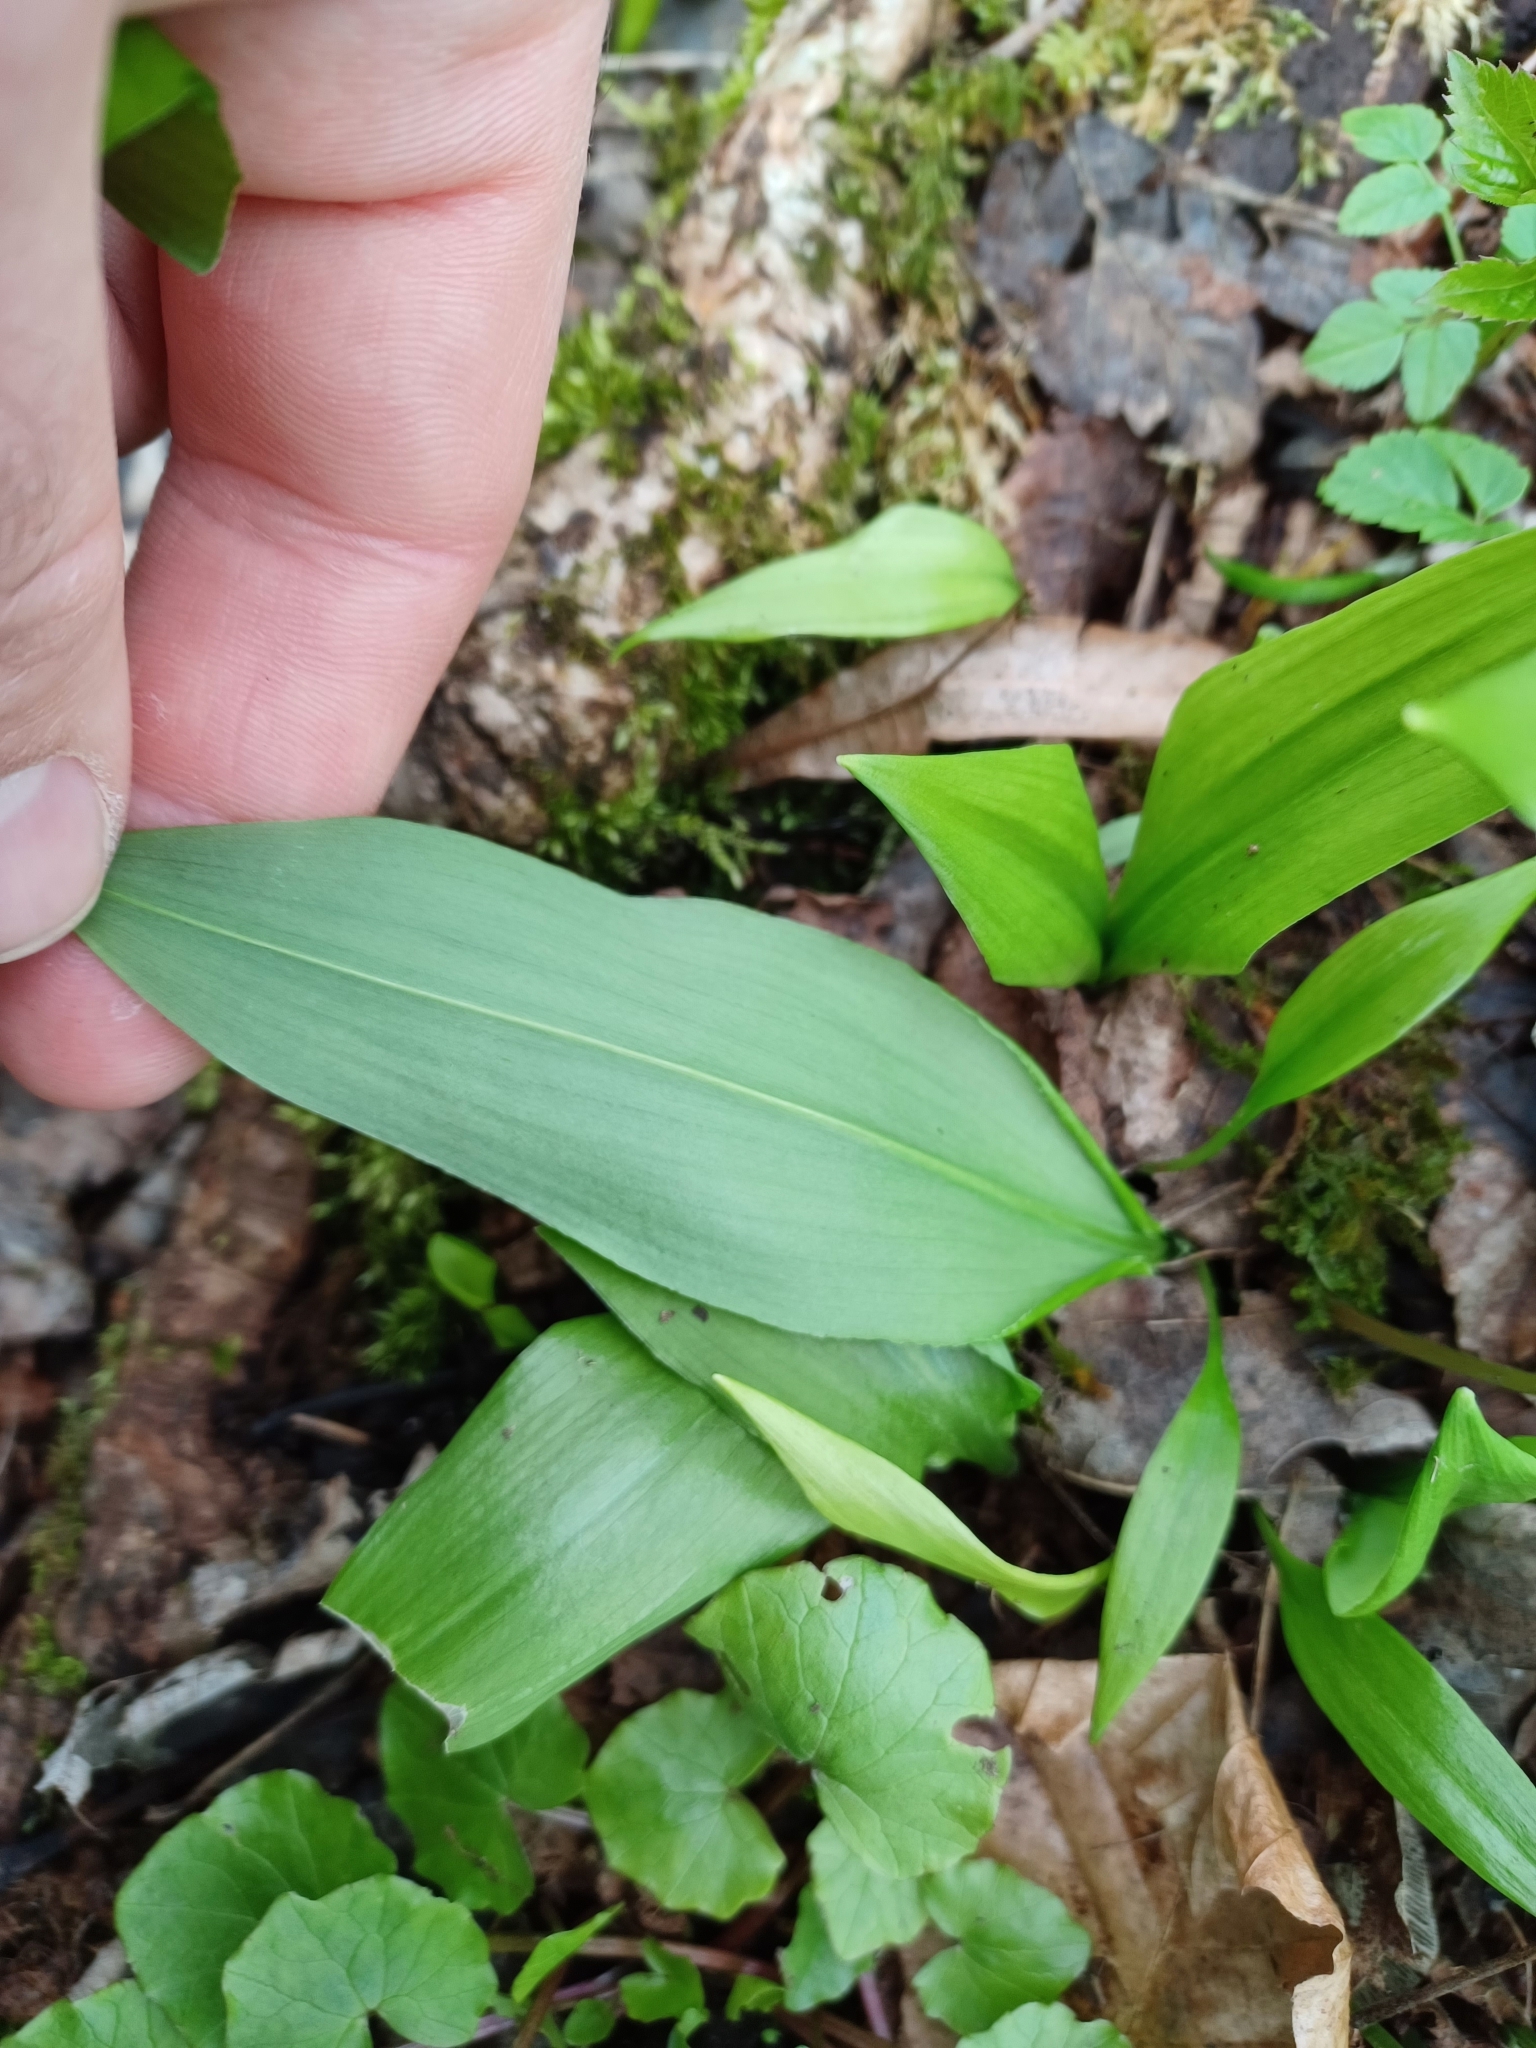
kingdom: Plantae
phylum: Tracheophyta
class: Liliopsida
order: Asparagales
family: Amaryllidaceae
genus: Allium
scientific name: Allium ursinum
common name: Ramsons
